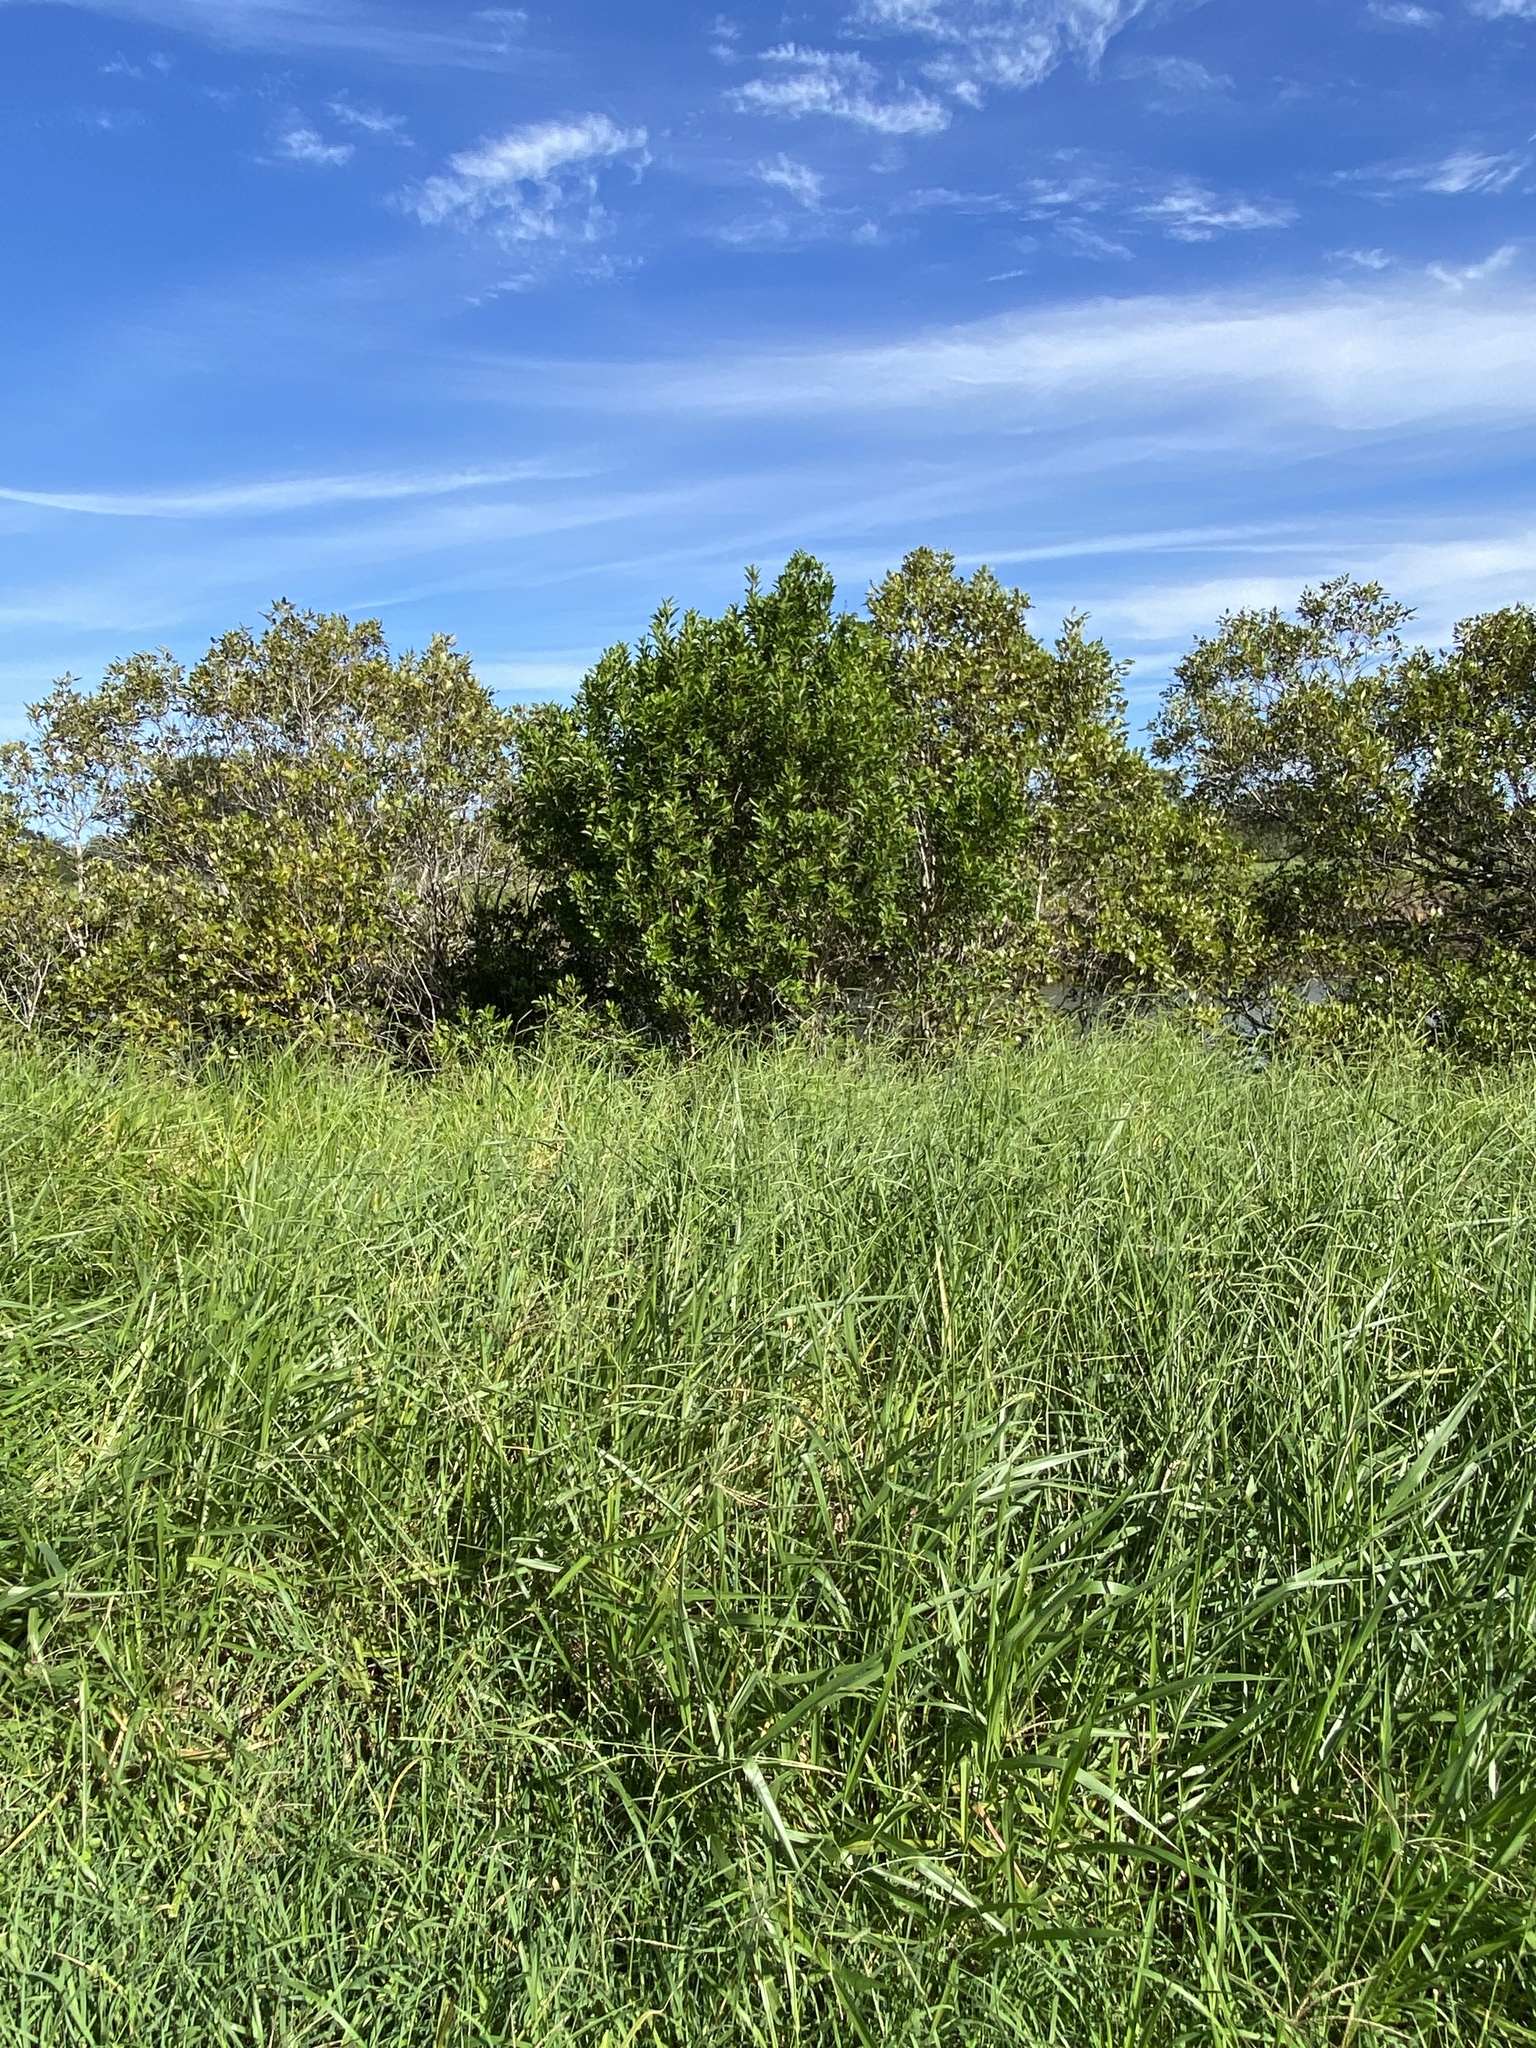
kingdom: Plantae
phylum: Tracheophyta
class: Magnoliopsida
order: Malpighiales
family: Euphorbiaceae
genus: Excoecaria
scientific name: Excoecaria agallocha
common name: River poisontree
